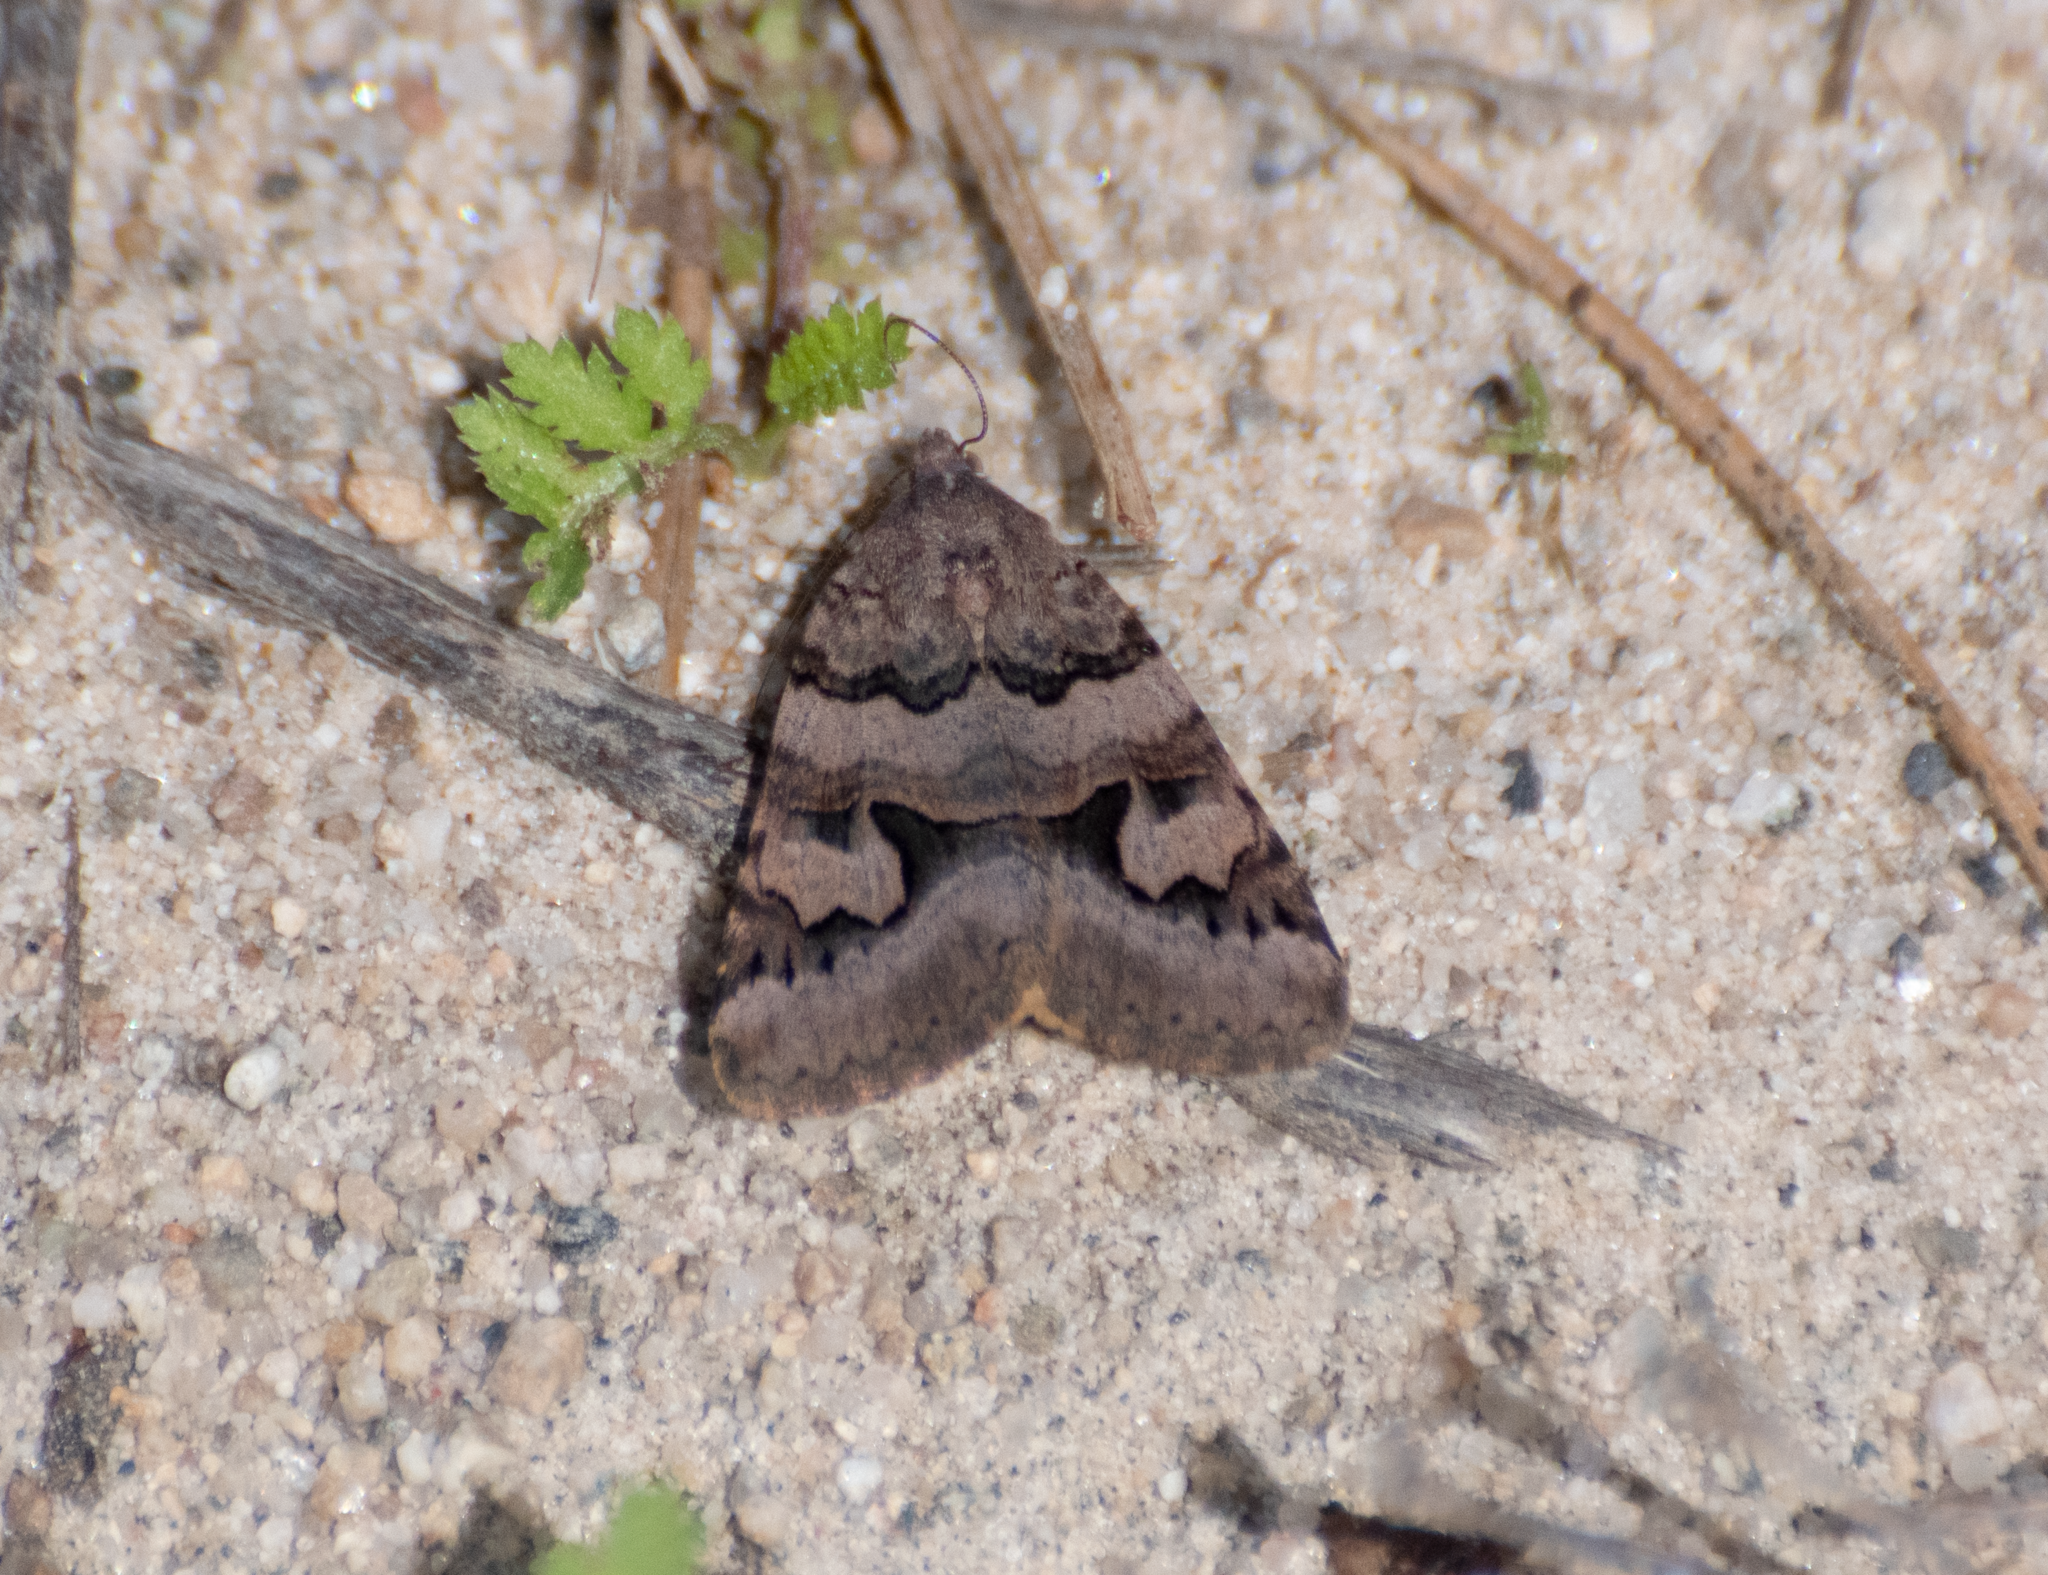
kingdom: Animalia
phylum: Arthropoda
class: Insecta
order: Lepidoptera
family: Erebidae
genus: Drasteria
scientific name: Drasteria adumbrata
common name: Shadowy arches
